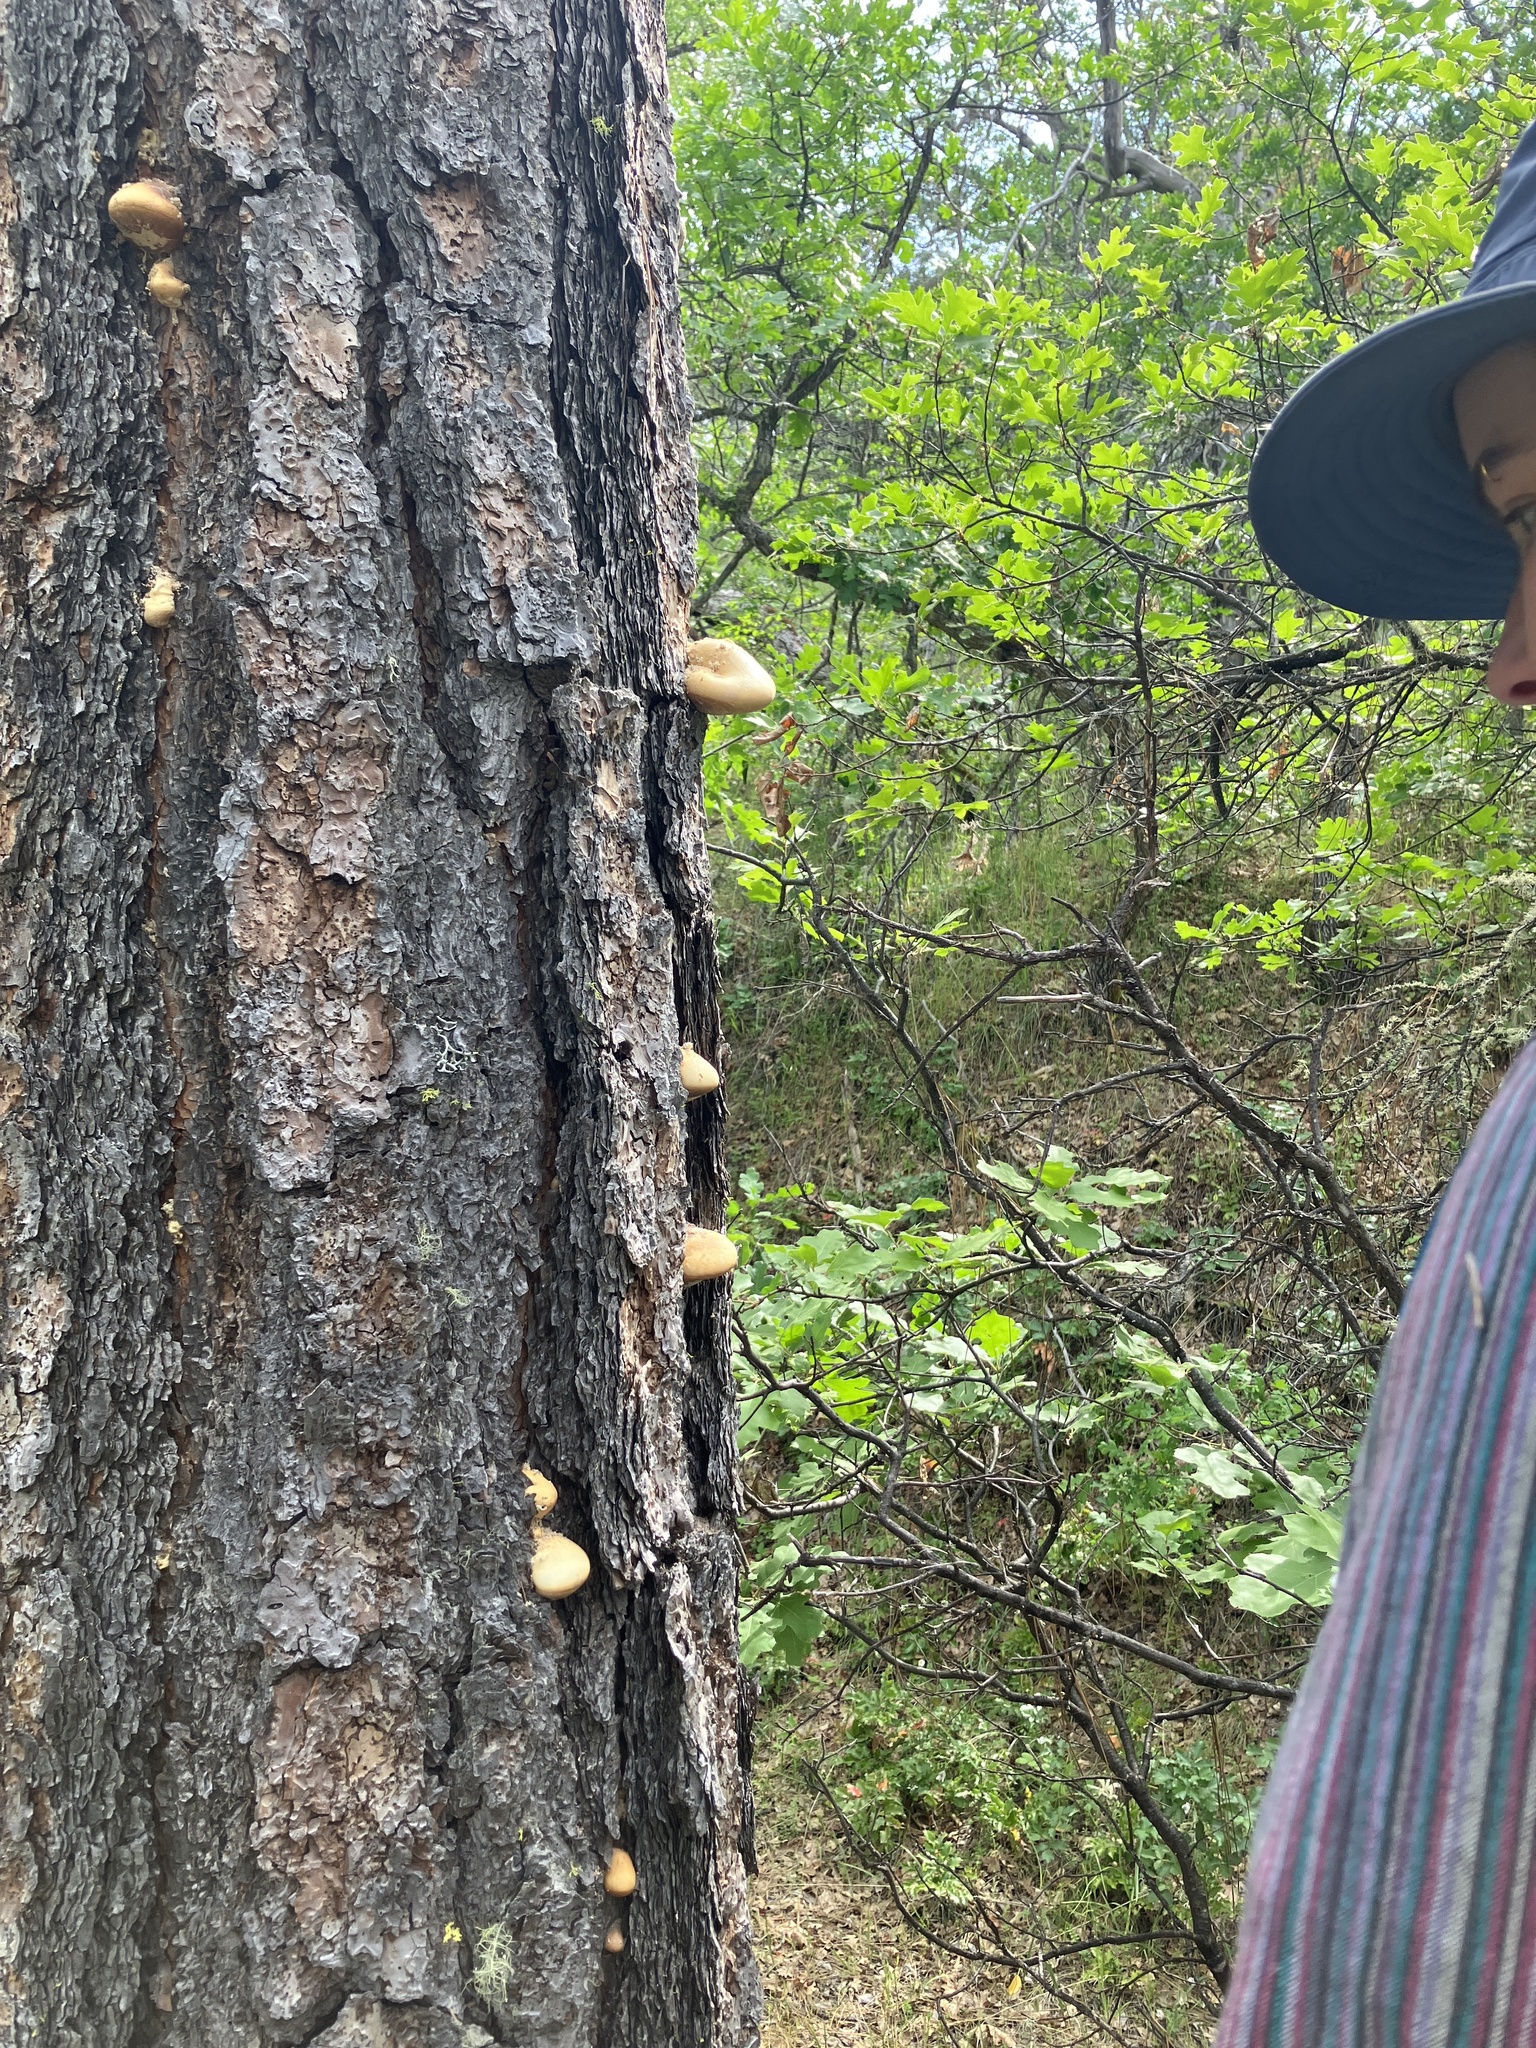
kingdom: Fungi
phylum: Basidiomycota
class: Agaricomycetes
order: Polyporales
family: Polyporaceae
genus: Cryptoporus
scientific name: Cryptoporus volvatus
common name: Veiled polypore
